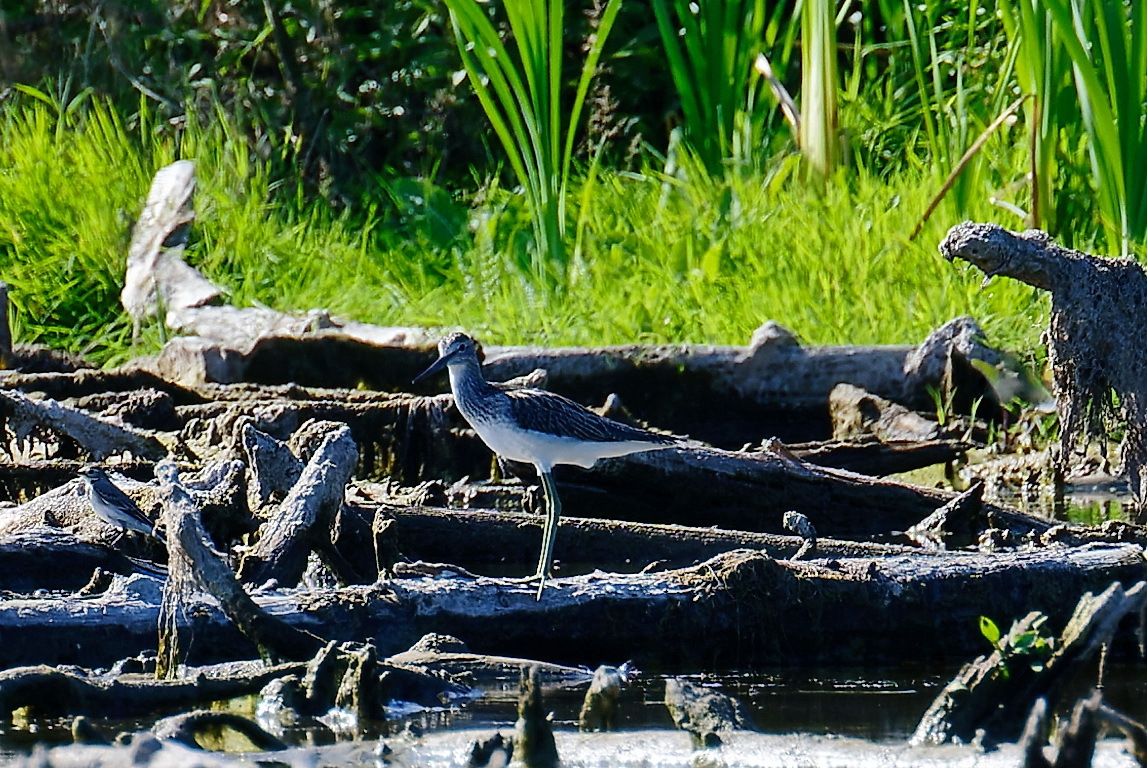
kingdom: Animalia
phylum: Chordata
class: Aves
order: Charadriiformes
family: Scolopacidae
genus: Tringa
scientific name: Tringa nebularia
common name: Common greenshank
